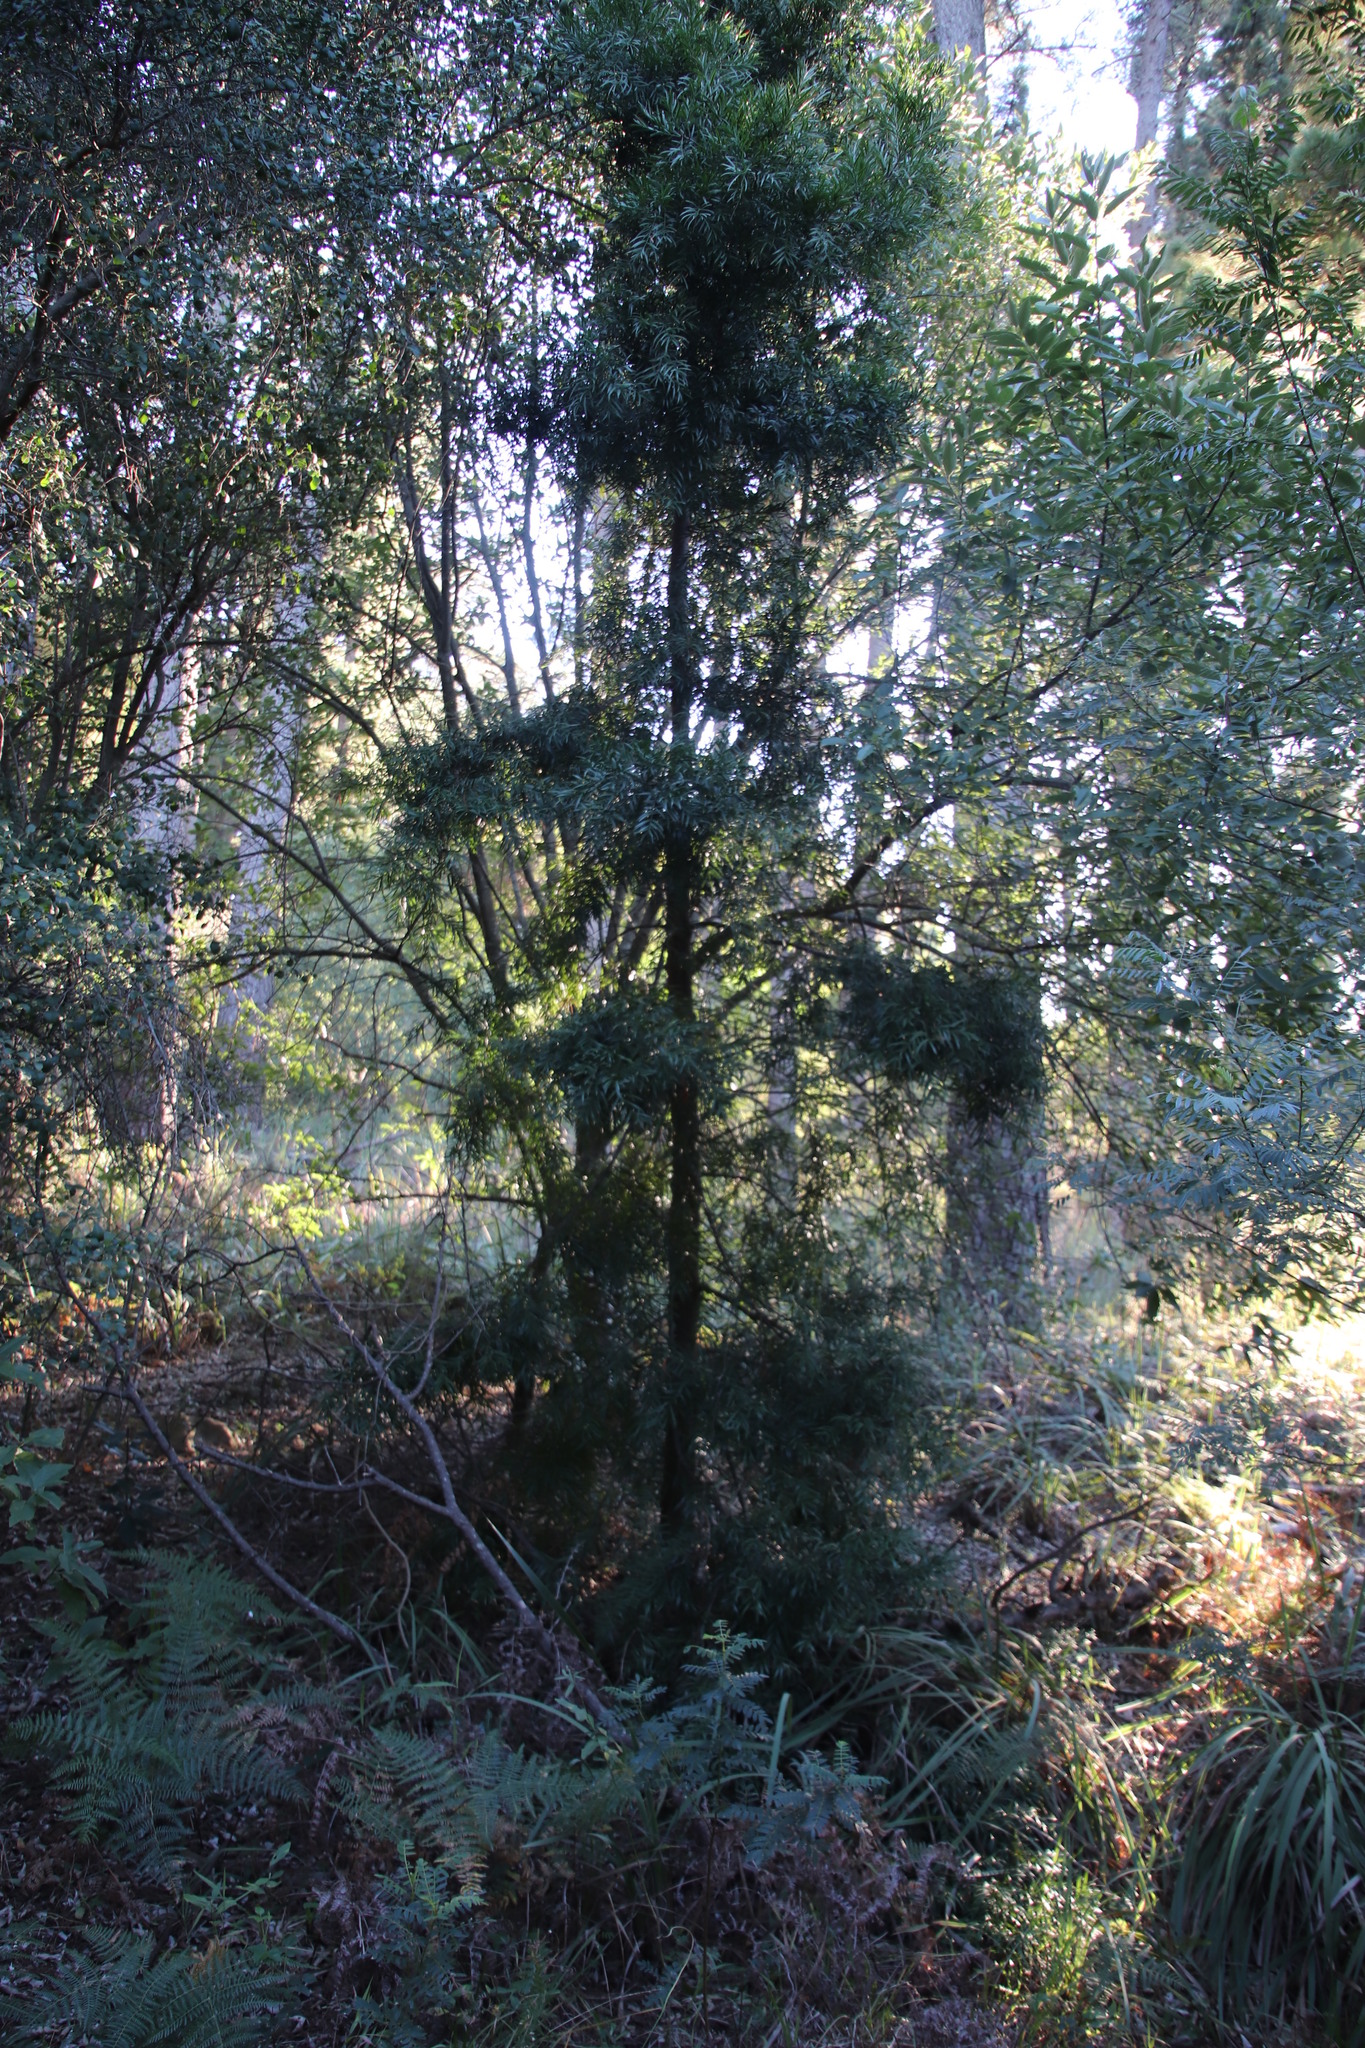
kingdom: Plantae
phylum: Tracheophyta
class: Pinopsida
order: Pinales
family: Podocarpaceae
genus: Afrocarpus
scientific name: Afrocarpus falcatus
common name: Bastard yellowwood
